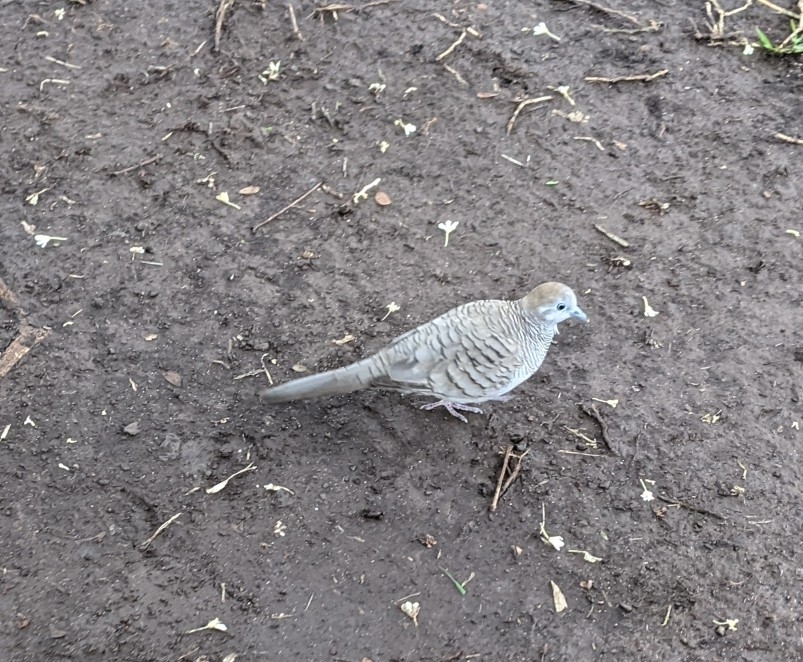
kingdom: Animalia
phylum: Chordata
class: Aves
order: Columbiformes
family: Columbidae
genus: Geopelia
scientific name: Geopelia striata
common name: Zebra dove
